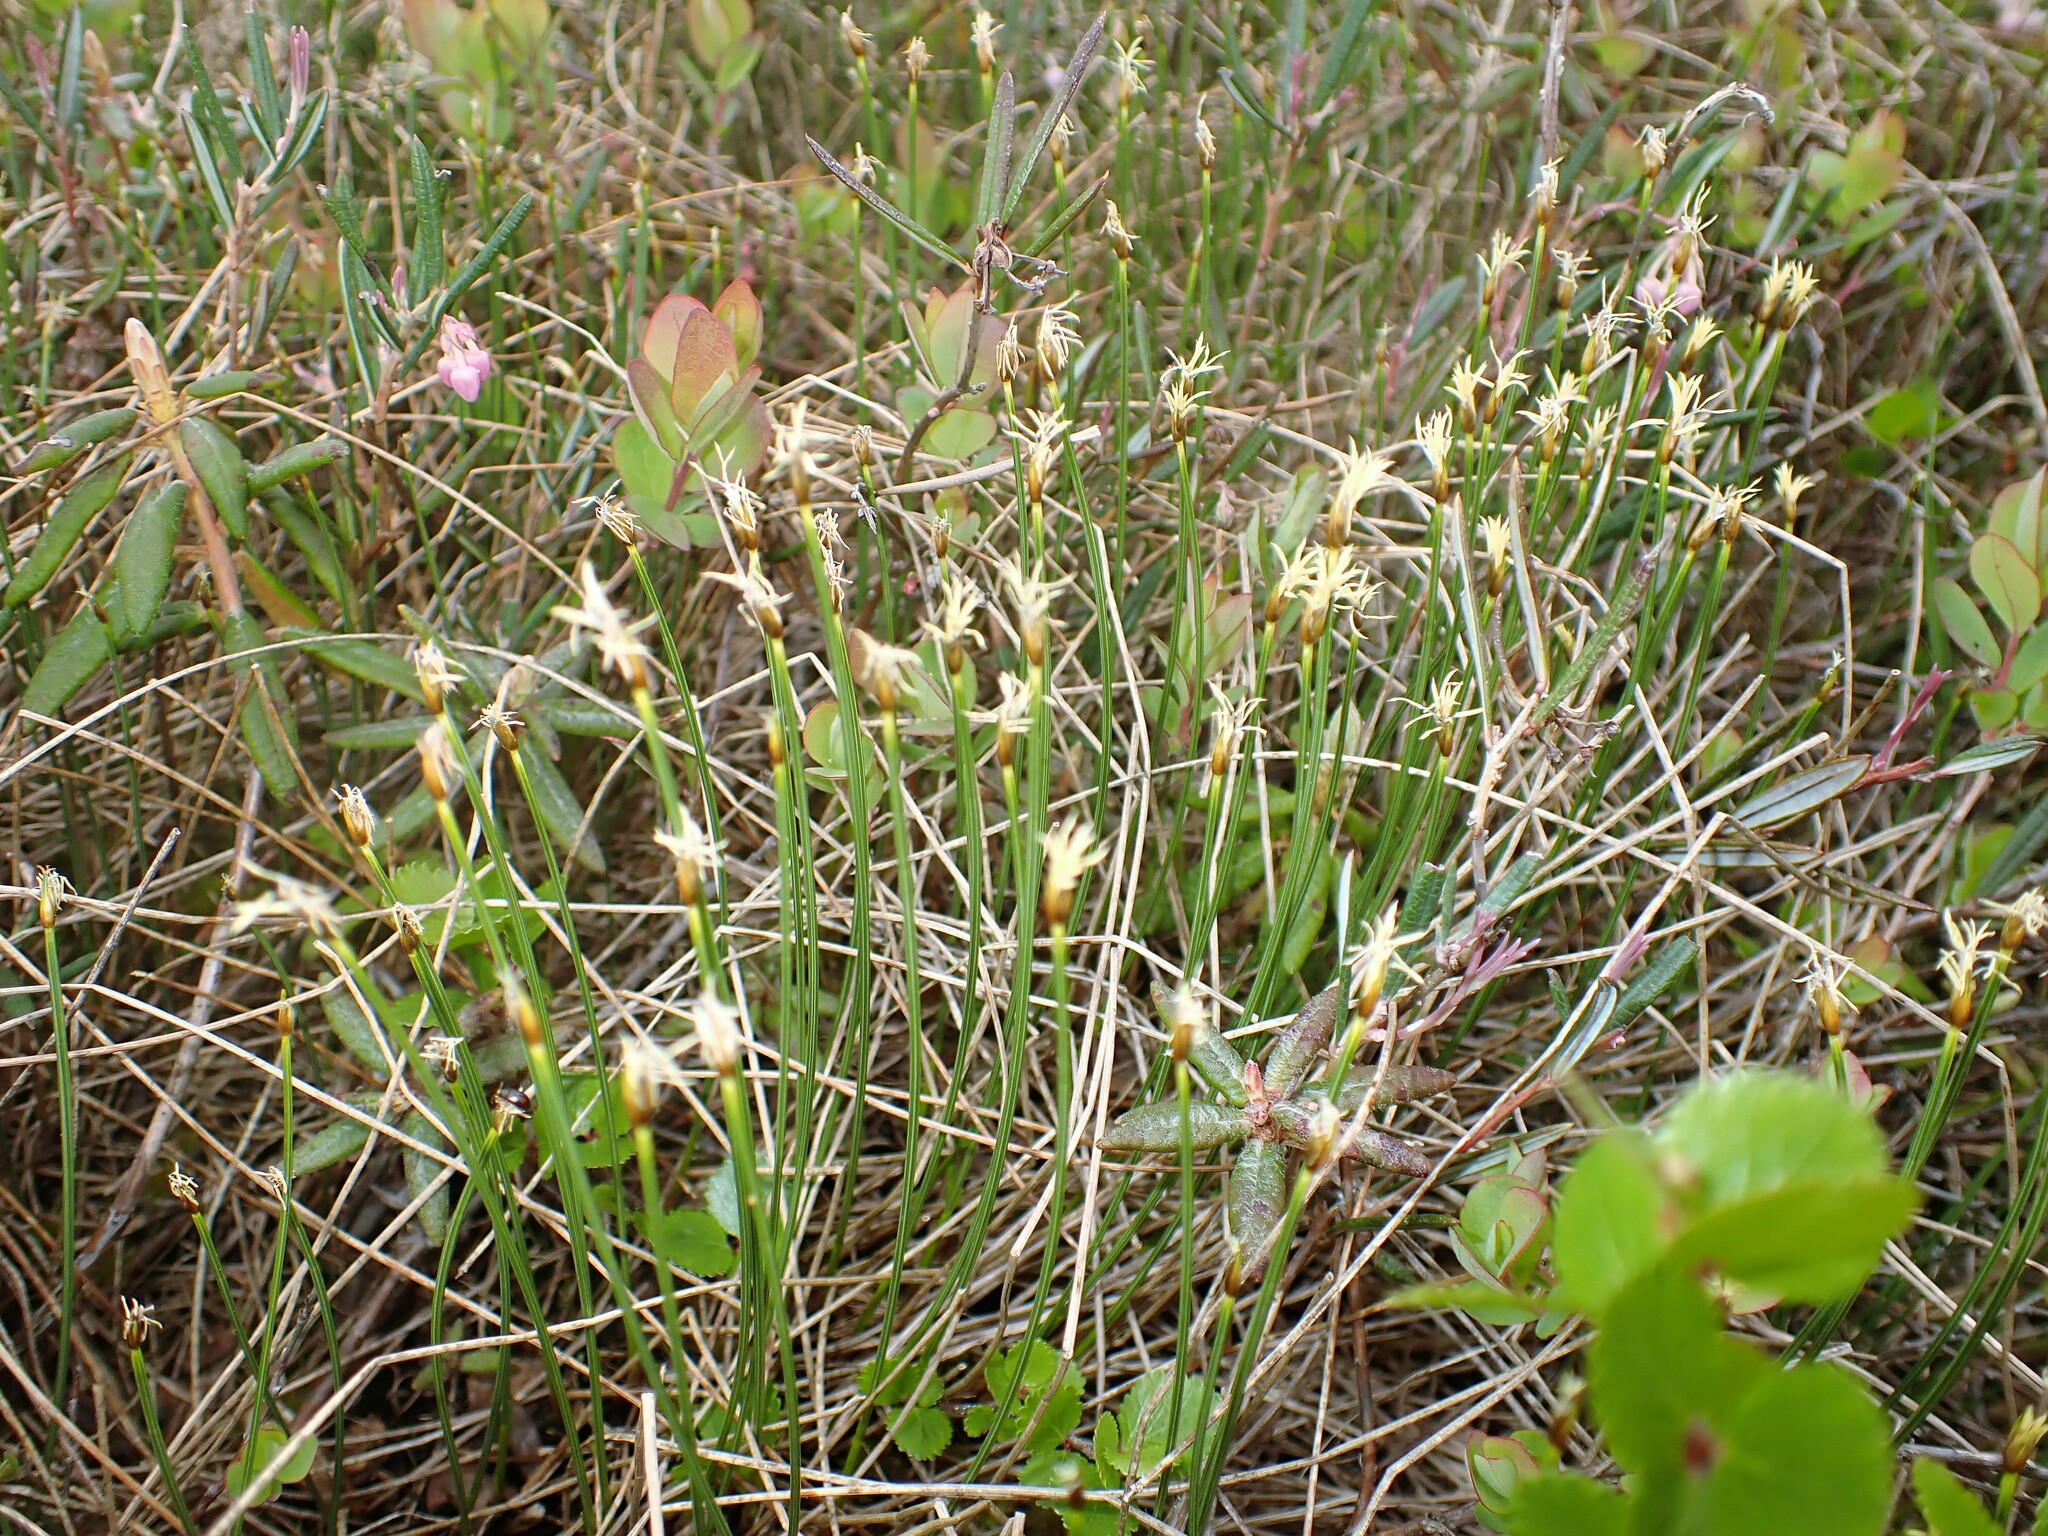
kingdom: Plantae
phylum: Tracheophyta
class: Liliopsida
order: Poales
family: Cyperaceae
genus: Trichophorum
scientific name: Trichophorum cespitosum
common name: Cespitose bulrush
